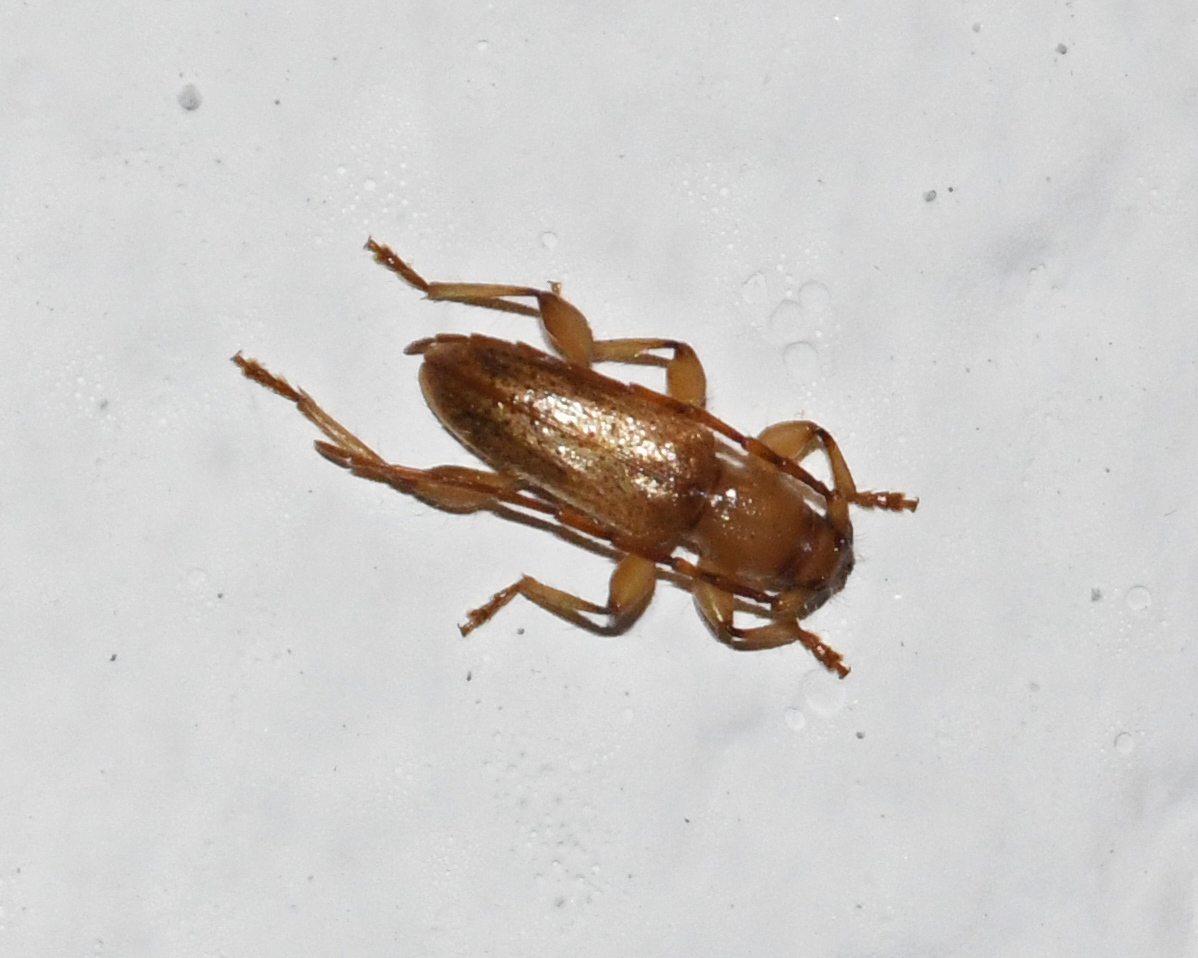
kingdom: Animalia
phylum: Arthropoda
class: Insecta
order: Coleoptera
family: Cerambycidae
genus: Curtomerus
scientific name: Curtomerus flavus
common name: Curtomerus long-horned beetle
